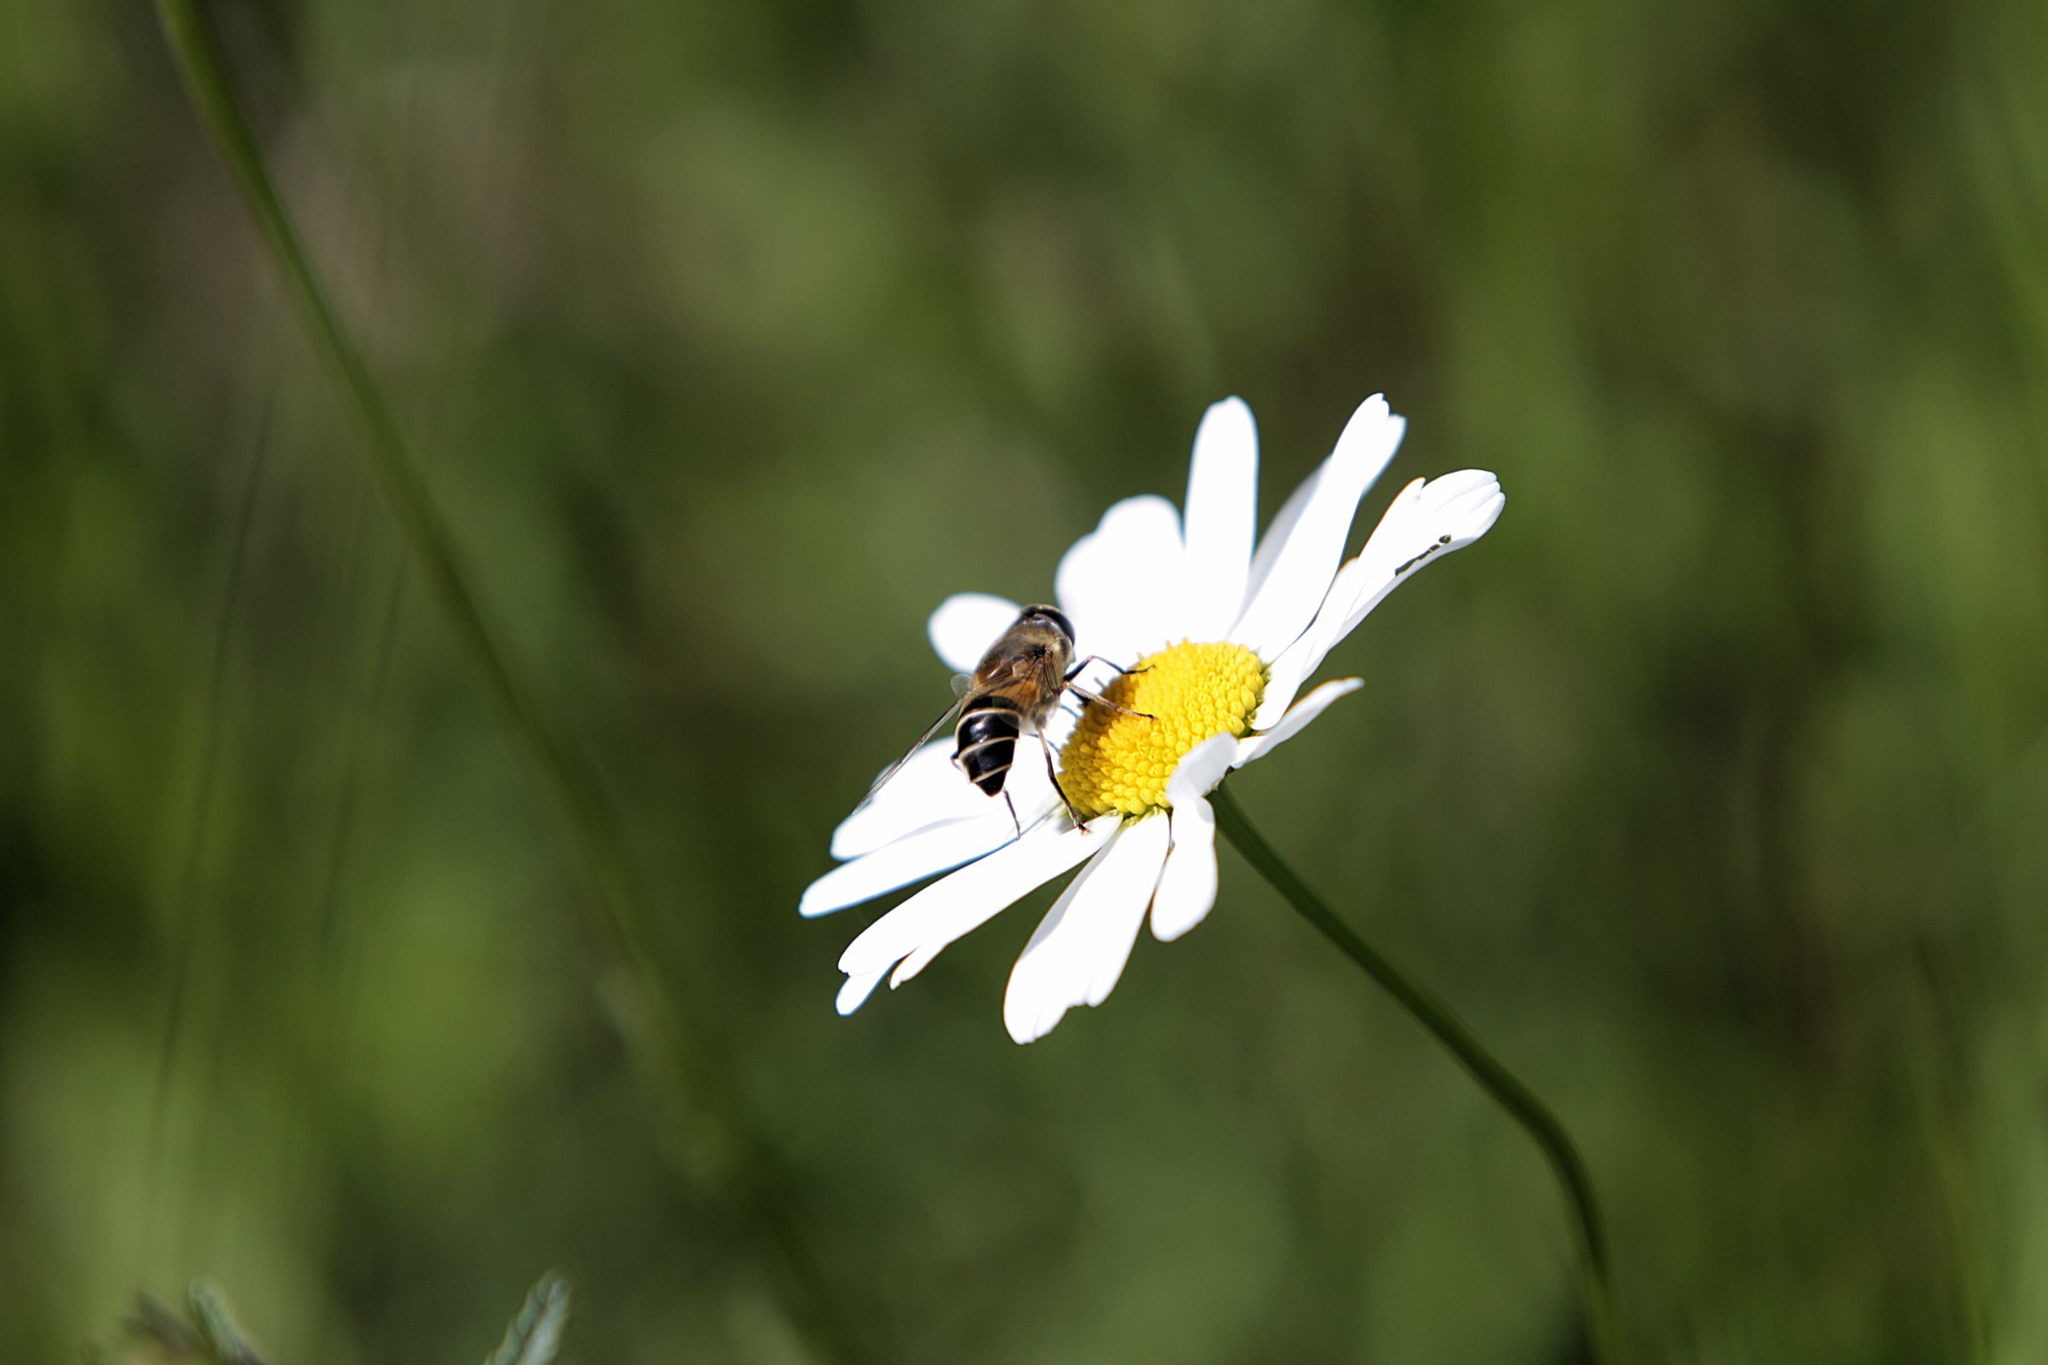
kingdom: Animalia
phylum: Arthropoda
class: Insecta
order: Diptera
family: Syrphidae
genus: Eristalis
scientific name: Eristalis pertinax
